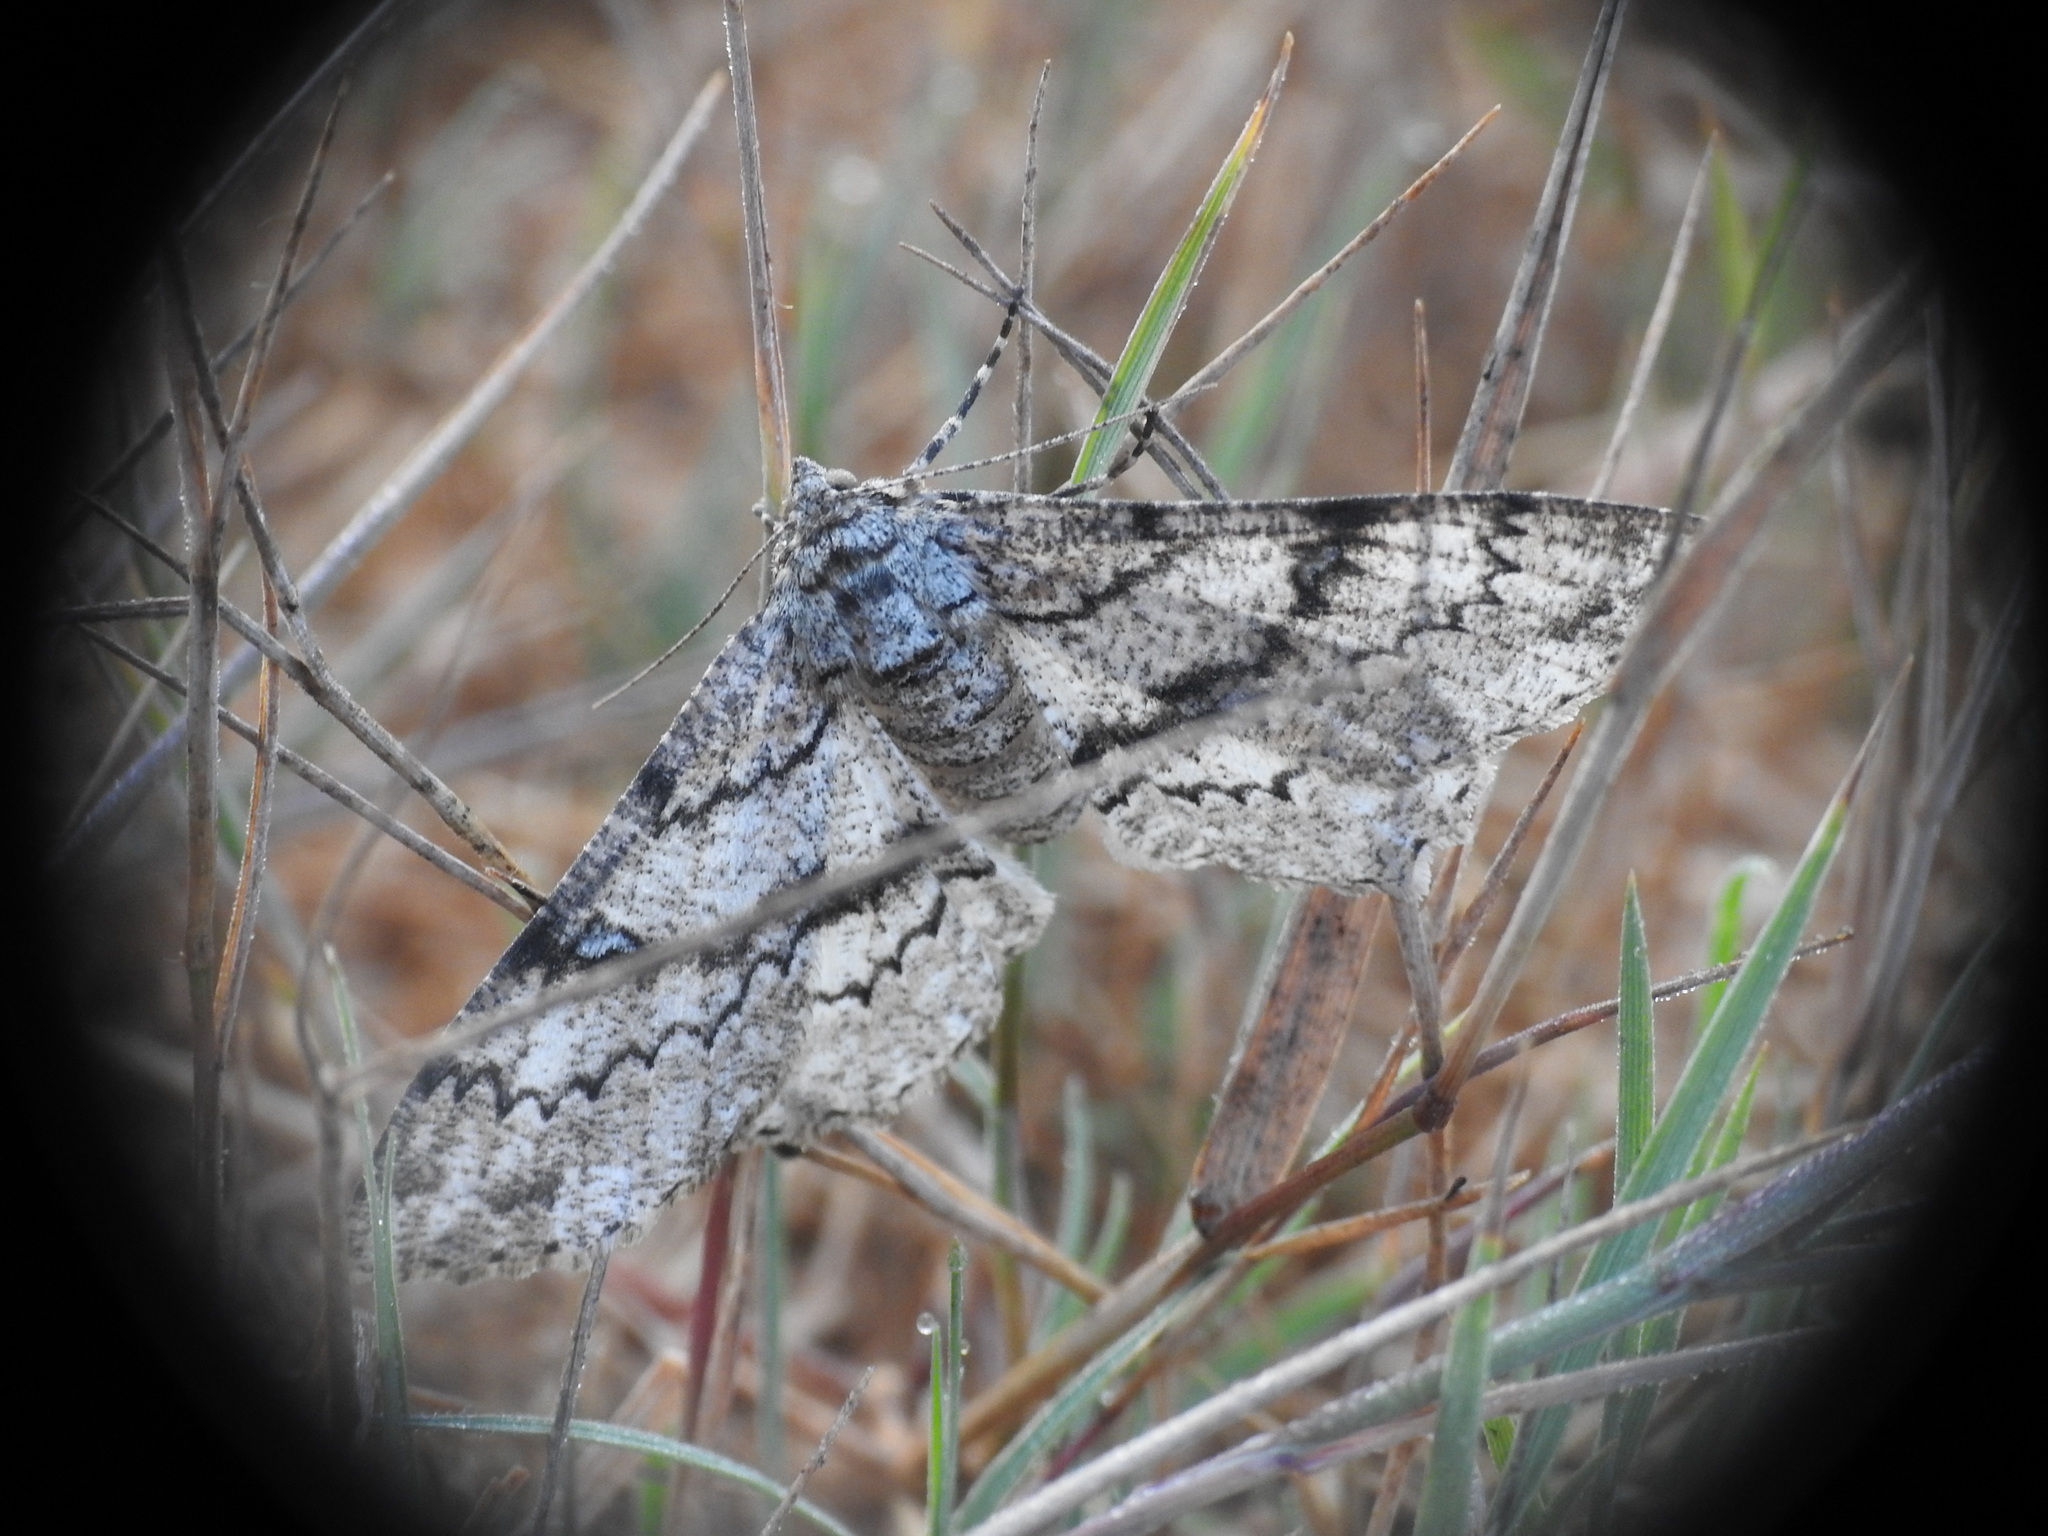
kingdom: Animalia
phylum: Arthropoda
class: Insecta
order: Lepidoptera
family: Geometridae
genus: Ascotis
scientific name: Ascotis selenaria
